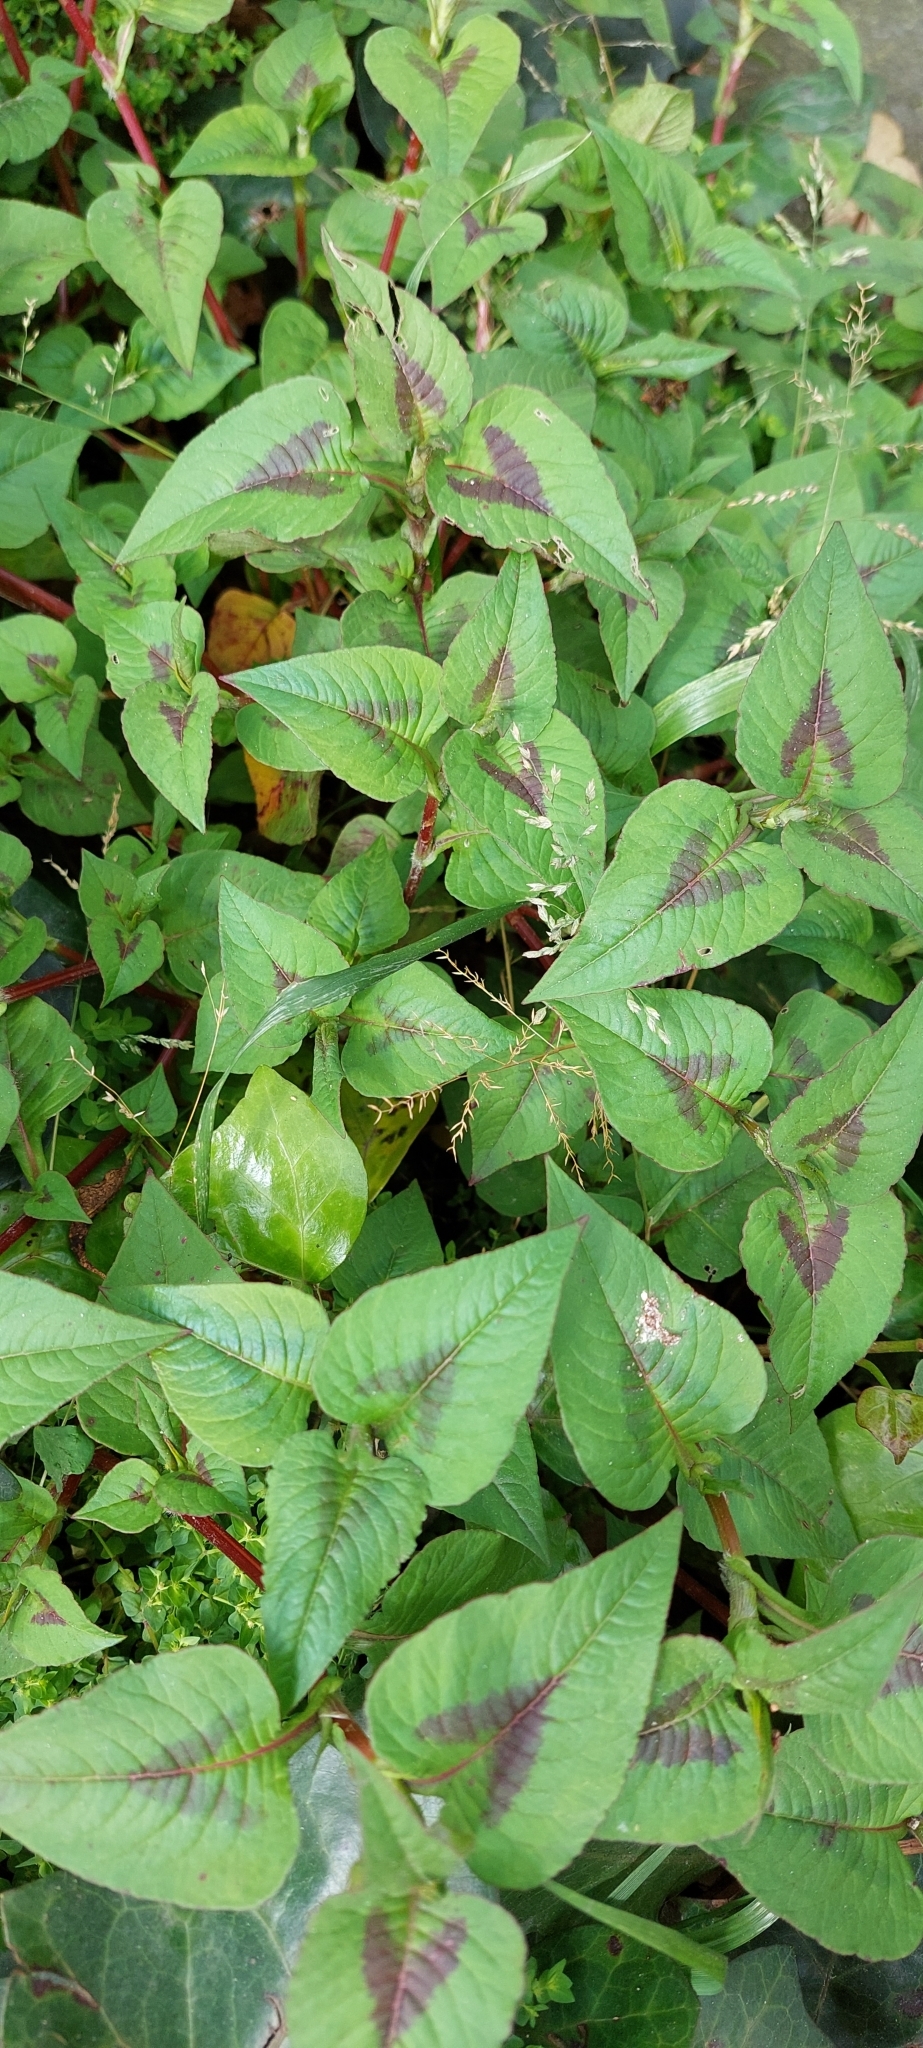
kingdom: Plantae
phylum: Tracheophyta
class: Magnoliopsida
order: Caryophyllales
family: Polygonaceae
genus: Persicaria
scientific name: Persicaria nepalensis
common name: Nepal persicaria
